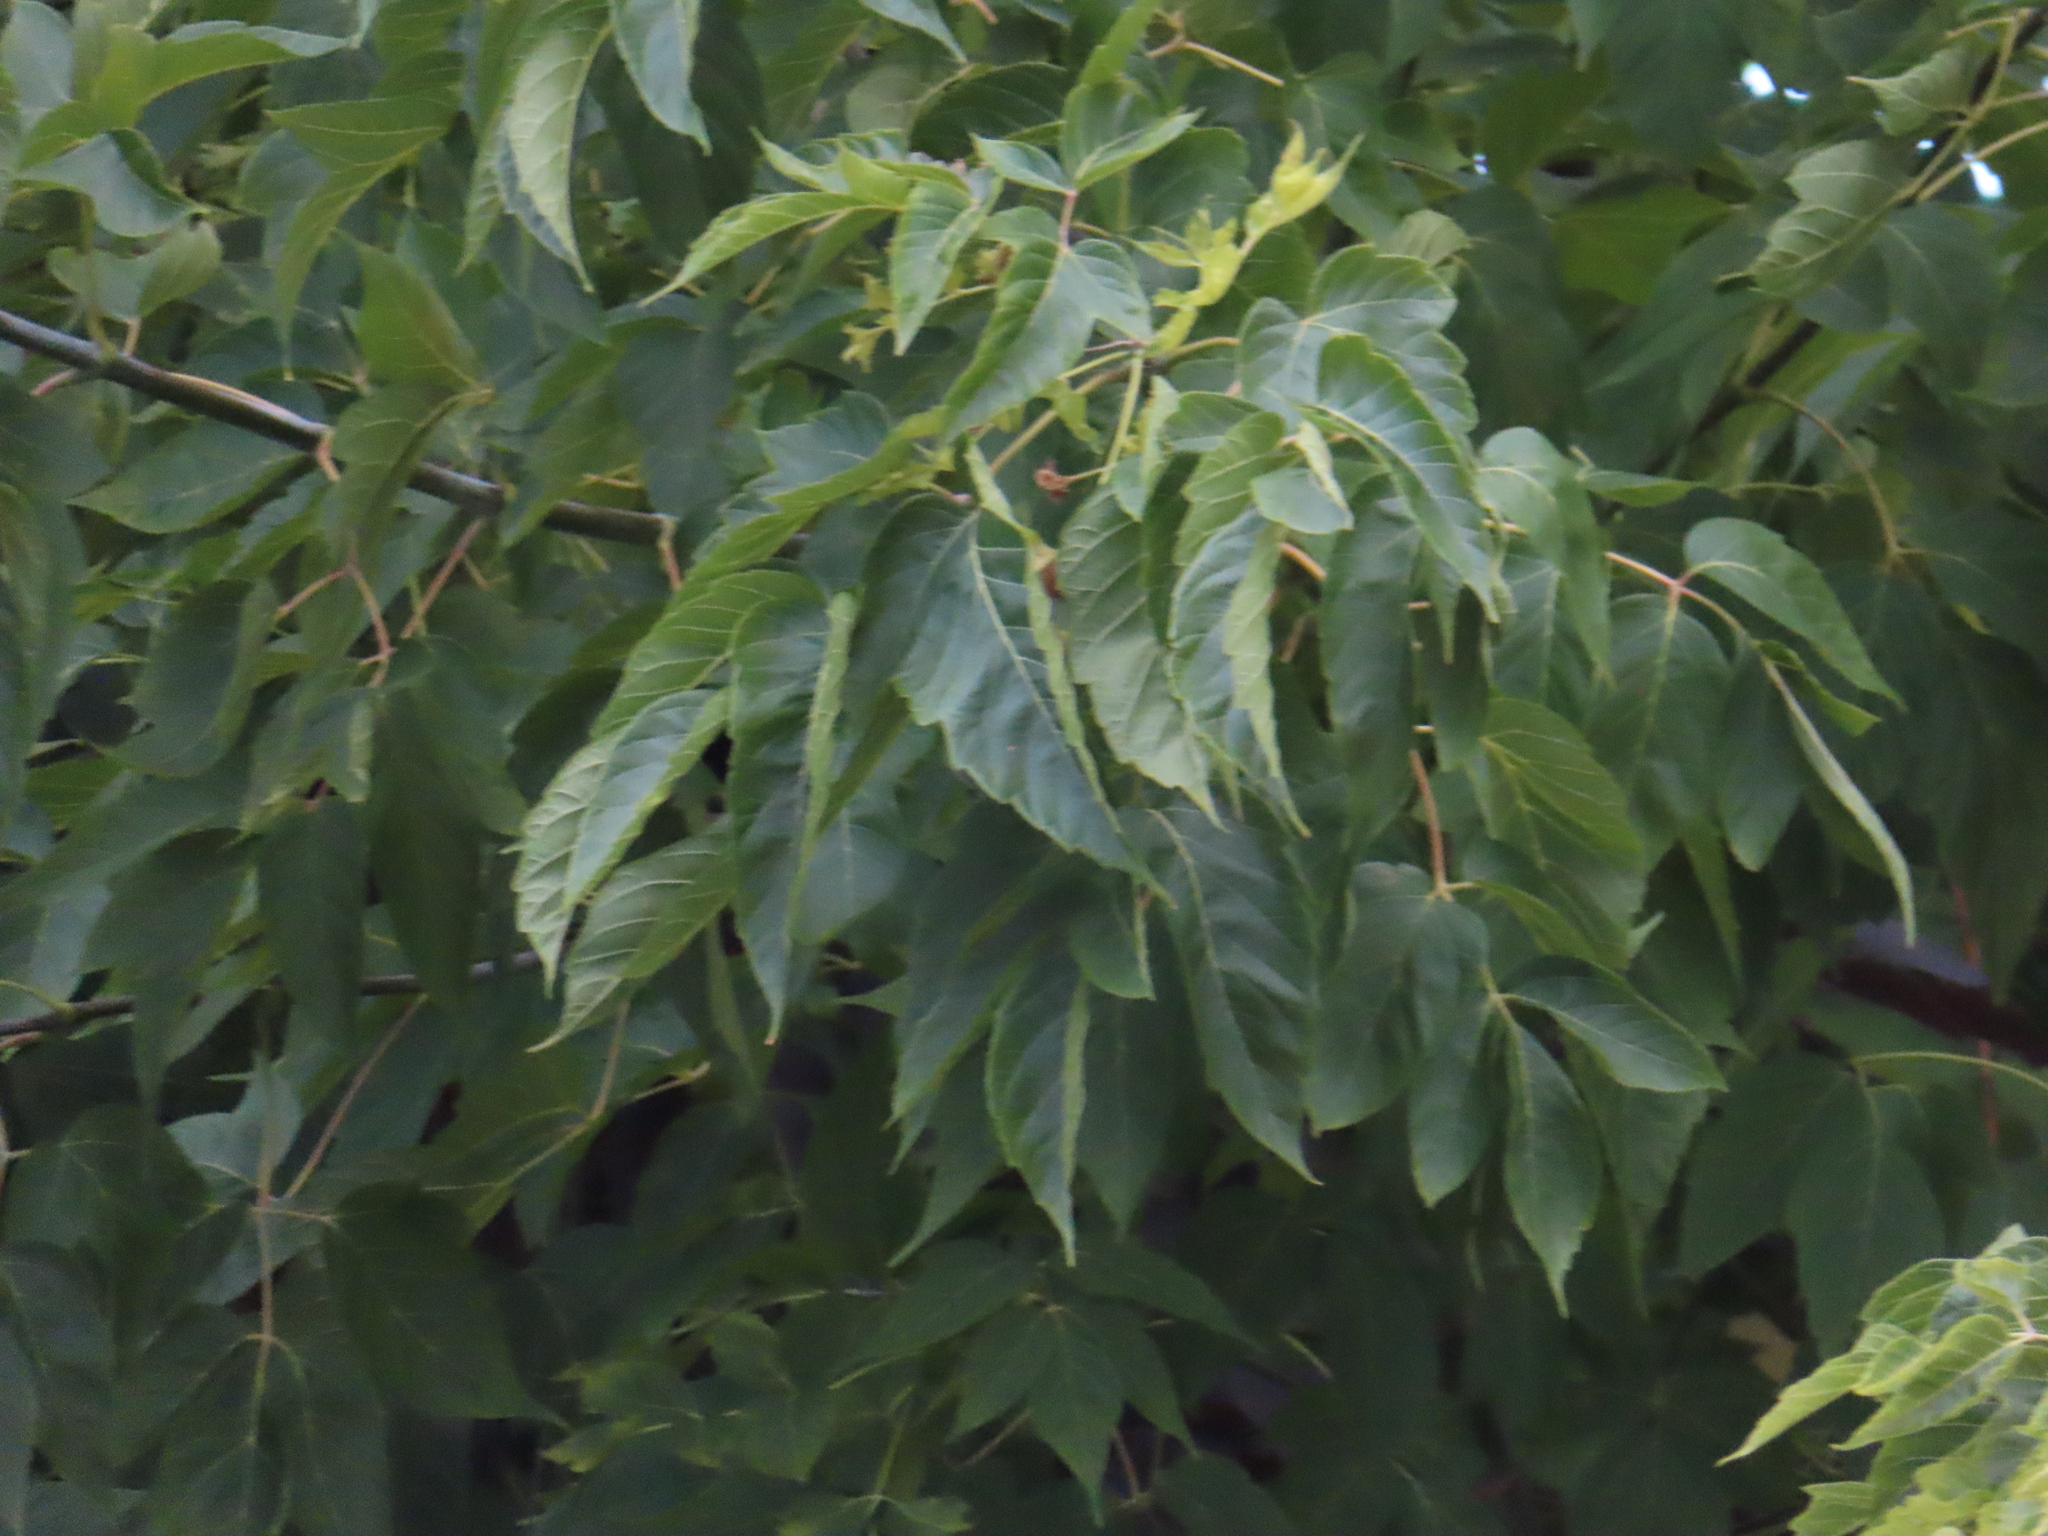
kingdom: Plantae
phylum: Tracheophyta
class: Magnoliopsida
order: Sapindales
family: Sapindaceae
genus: Acer
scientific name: Acer negundo
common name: Ashleaf maple
